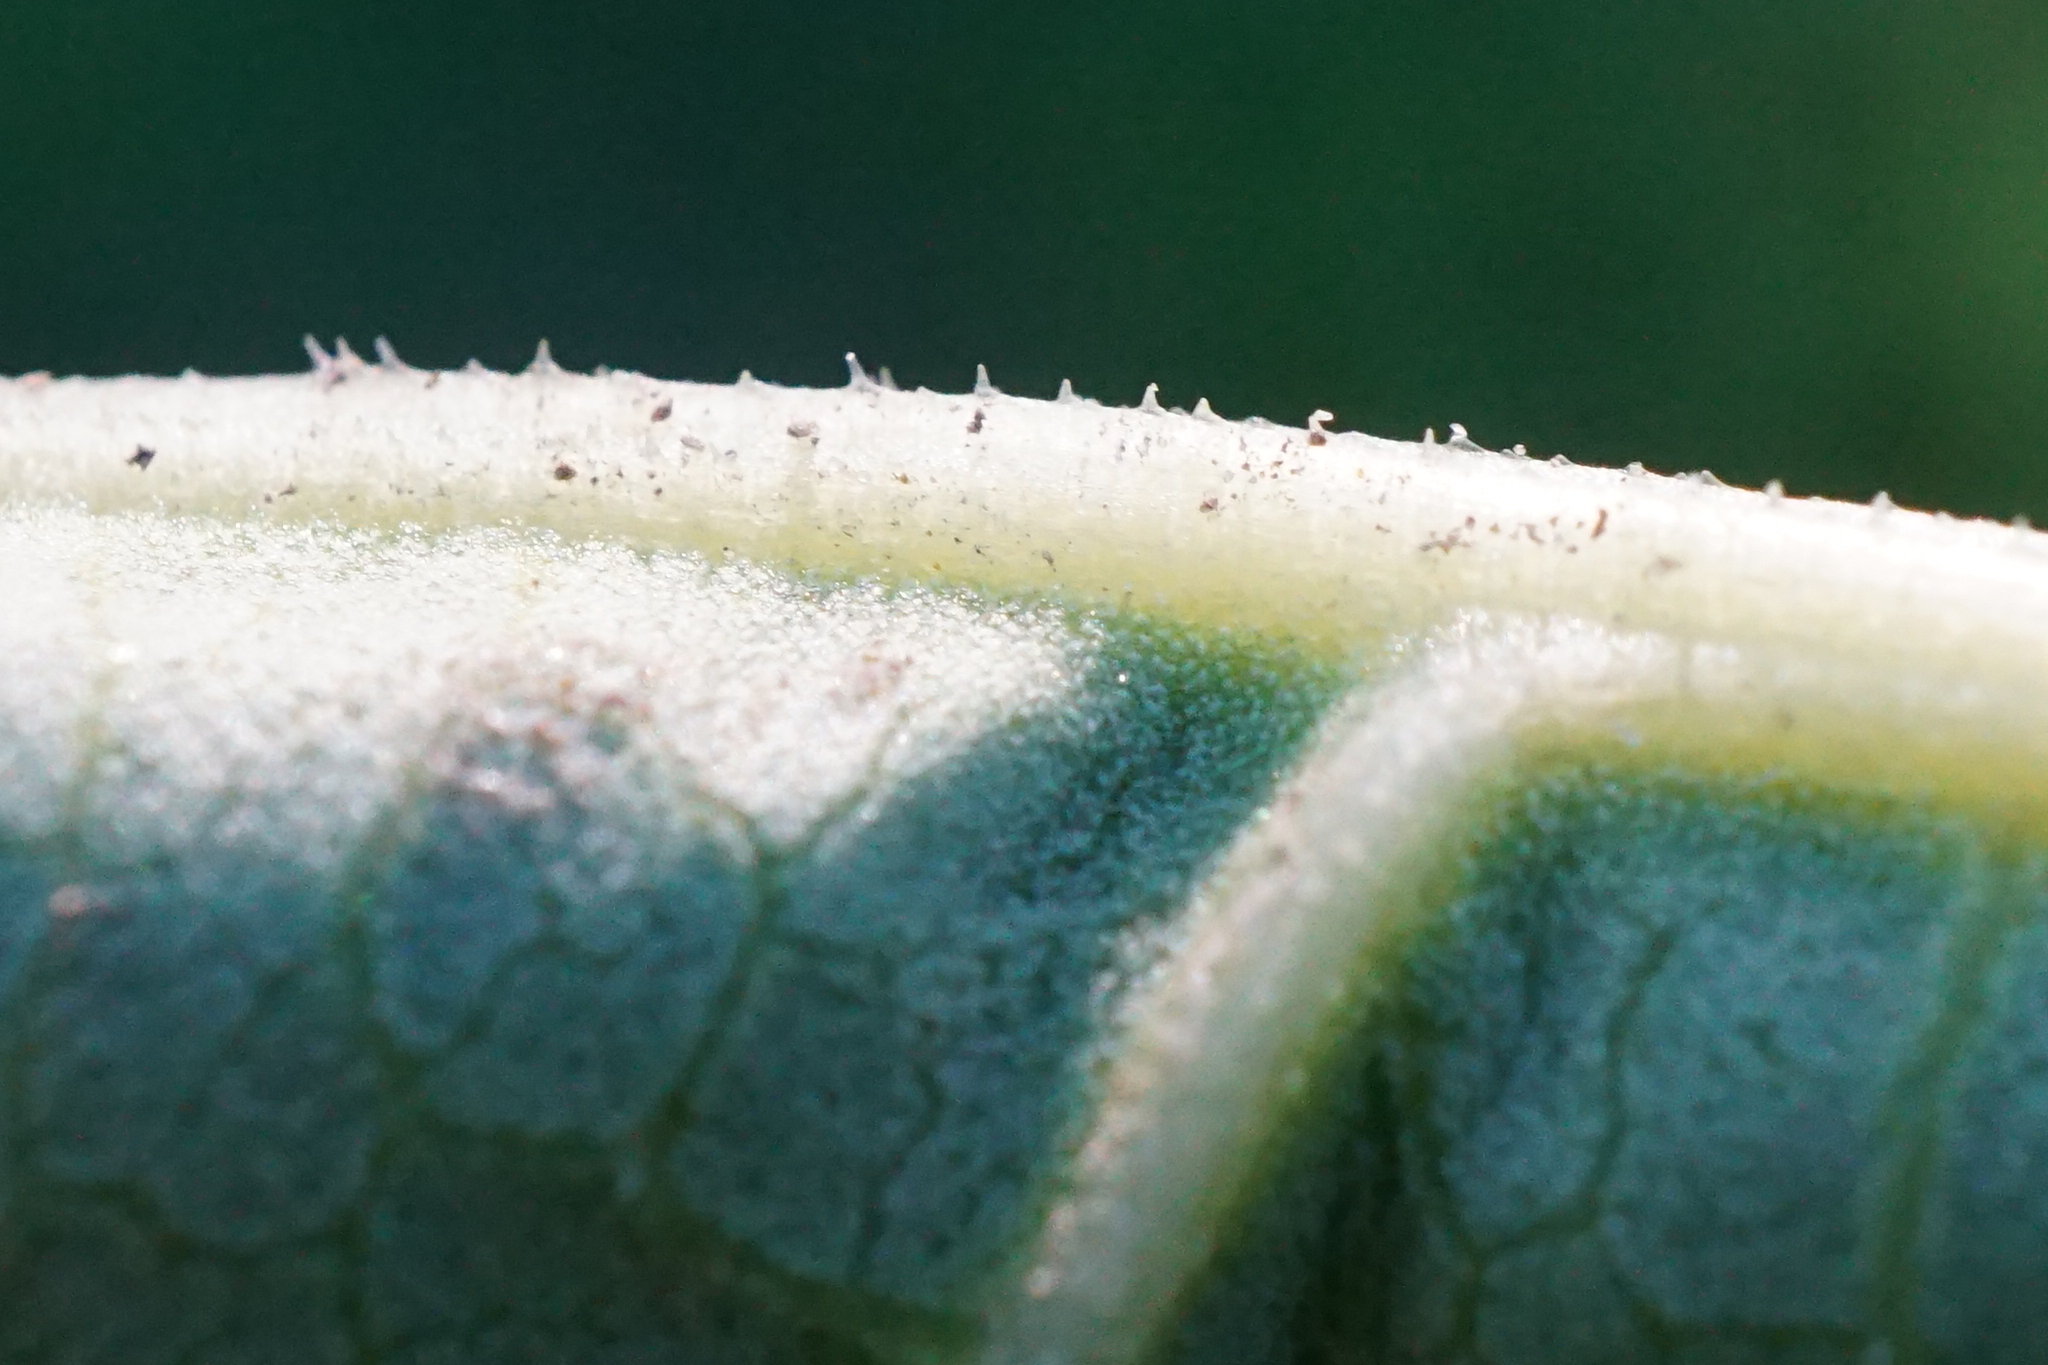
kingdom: Plantae
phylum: Tracheophyta
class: Magnoliopsida
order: Caryophyllales
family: Polygonaceae
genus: Reynoutria
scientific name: Reynoutria bohemica
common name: Bohemian knotweed
